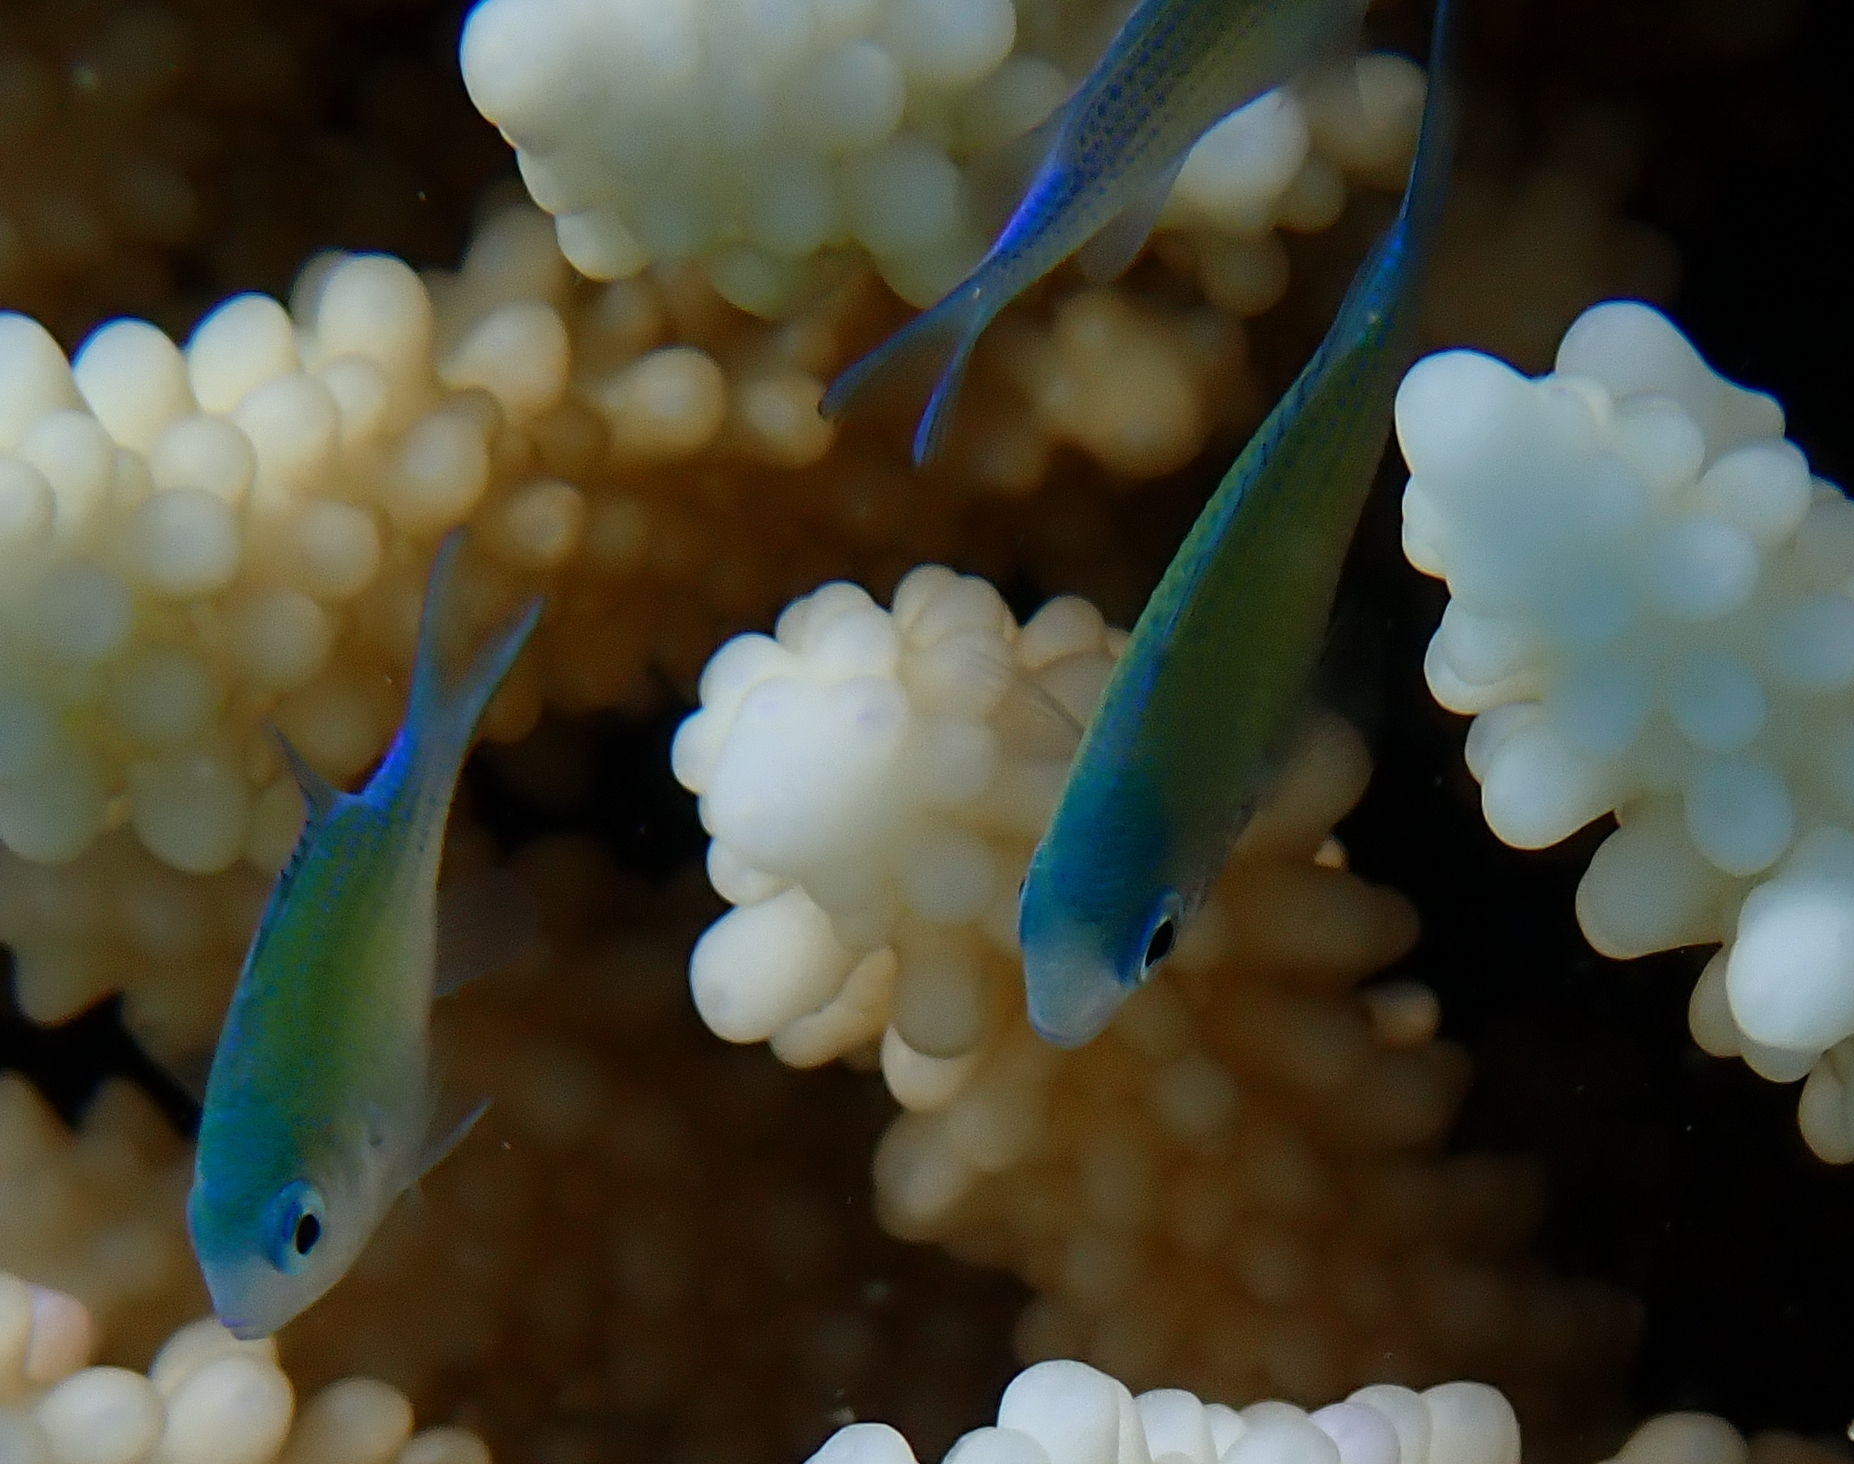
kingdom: Animalia
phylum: Chordata
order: Perciformes
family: Pomacentridae
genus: Chromis
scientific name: Chromis viridis
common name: Blue-green chromis
